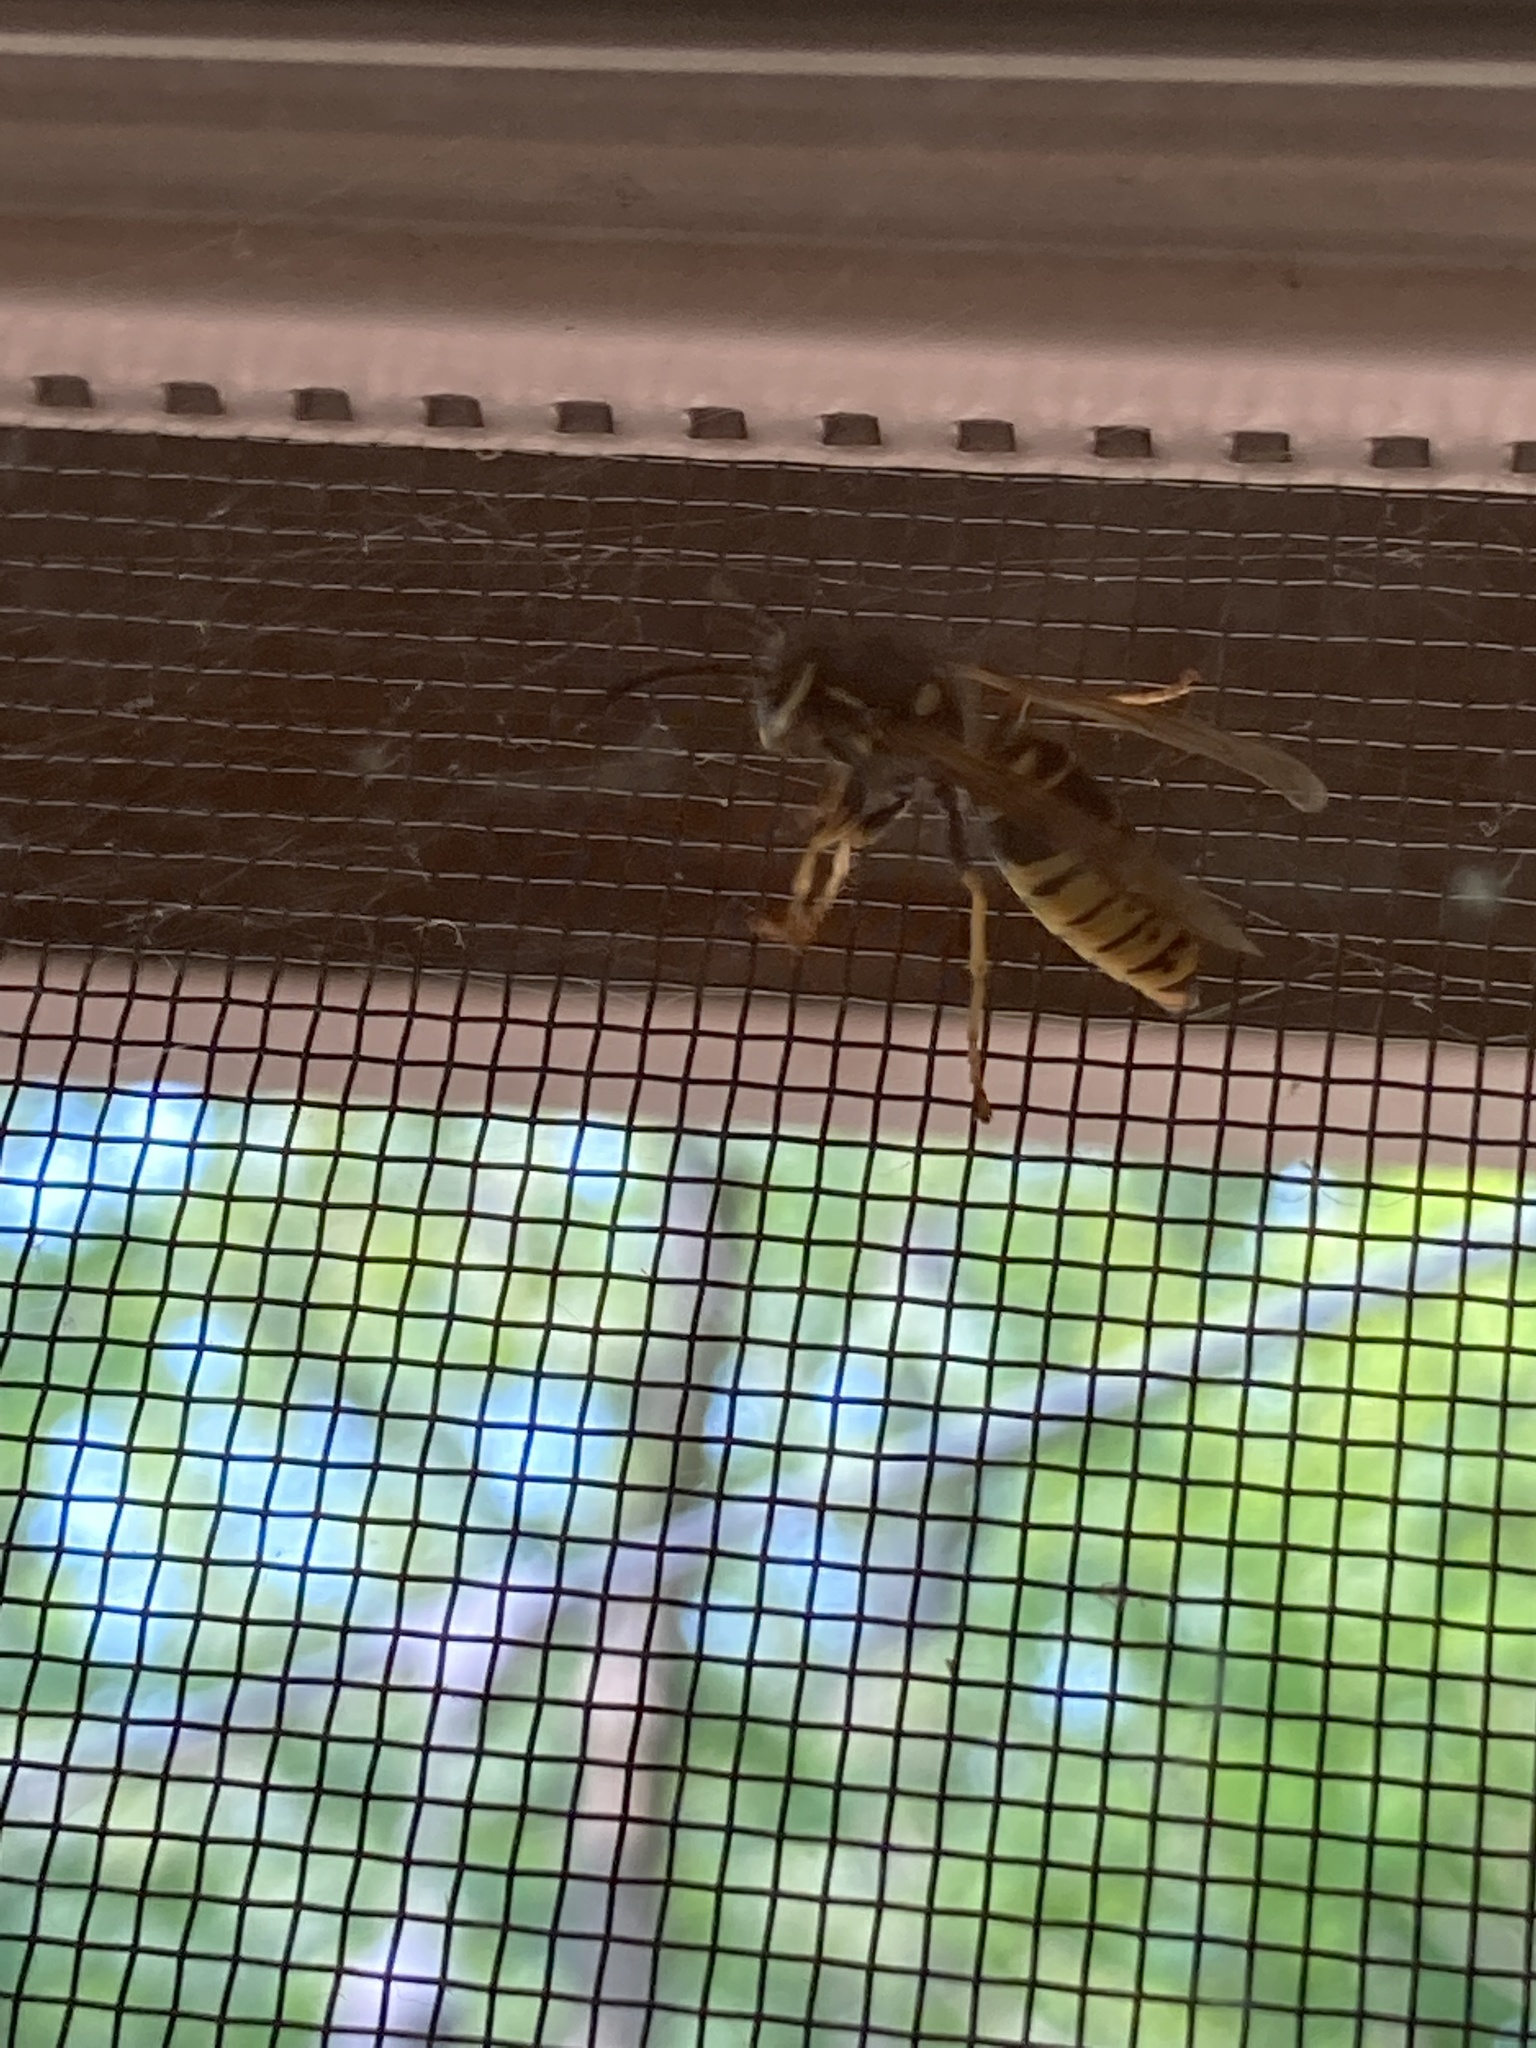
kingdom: Animalia
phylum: Arthropoda
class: Insecta
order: Hymenoptera
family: Vespidae
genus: Vespula
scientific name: Vespula vidua
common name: Widow yellowjacket
